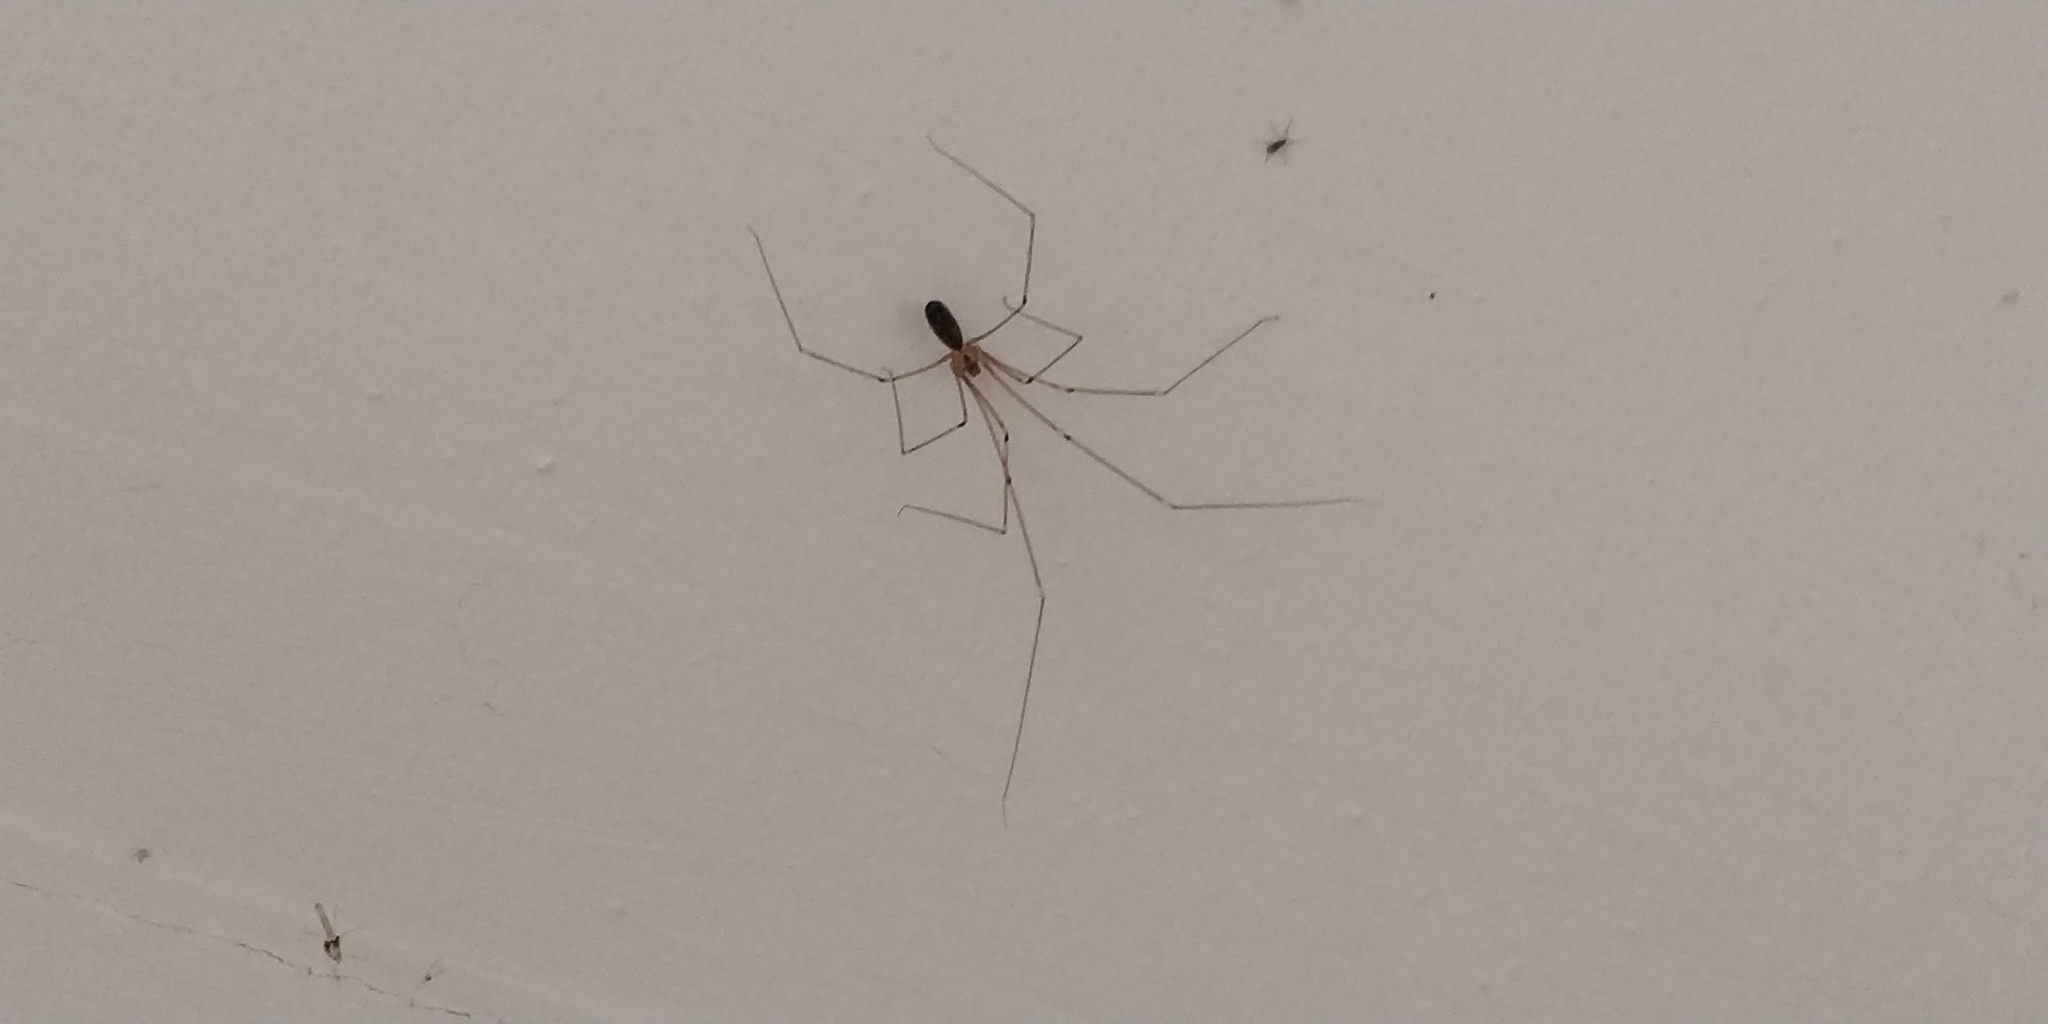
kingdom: Animalia
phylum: Arthropoda
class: Arachnida
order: Araneae
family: Pholcidae
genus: Pholcus
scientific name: Pholcus phalangioides
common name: Longbodied cellar spider
